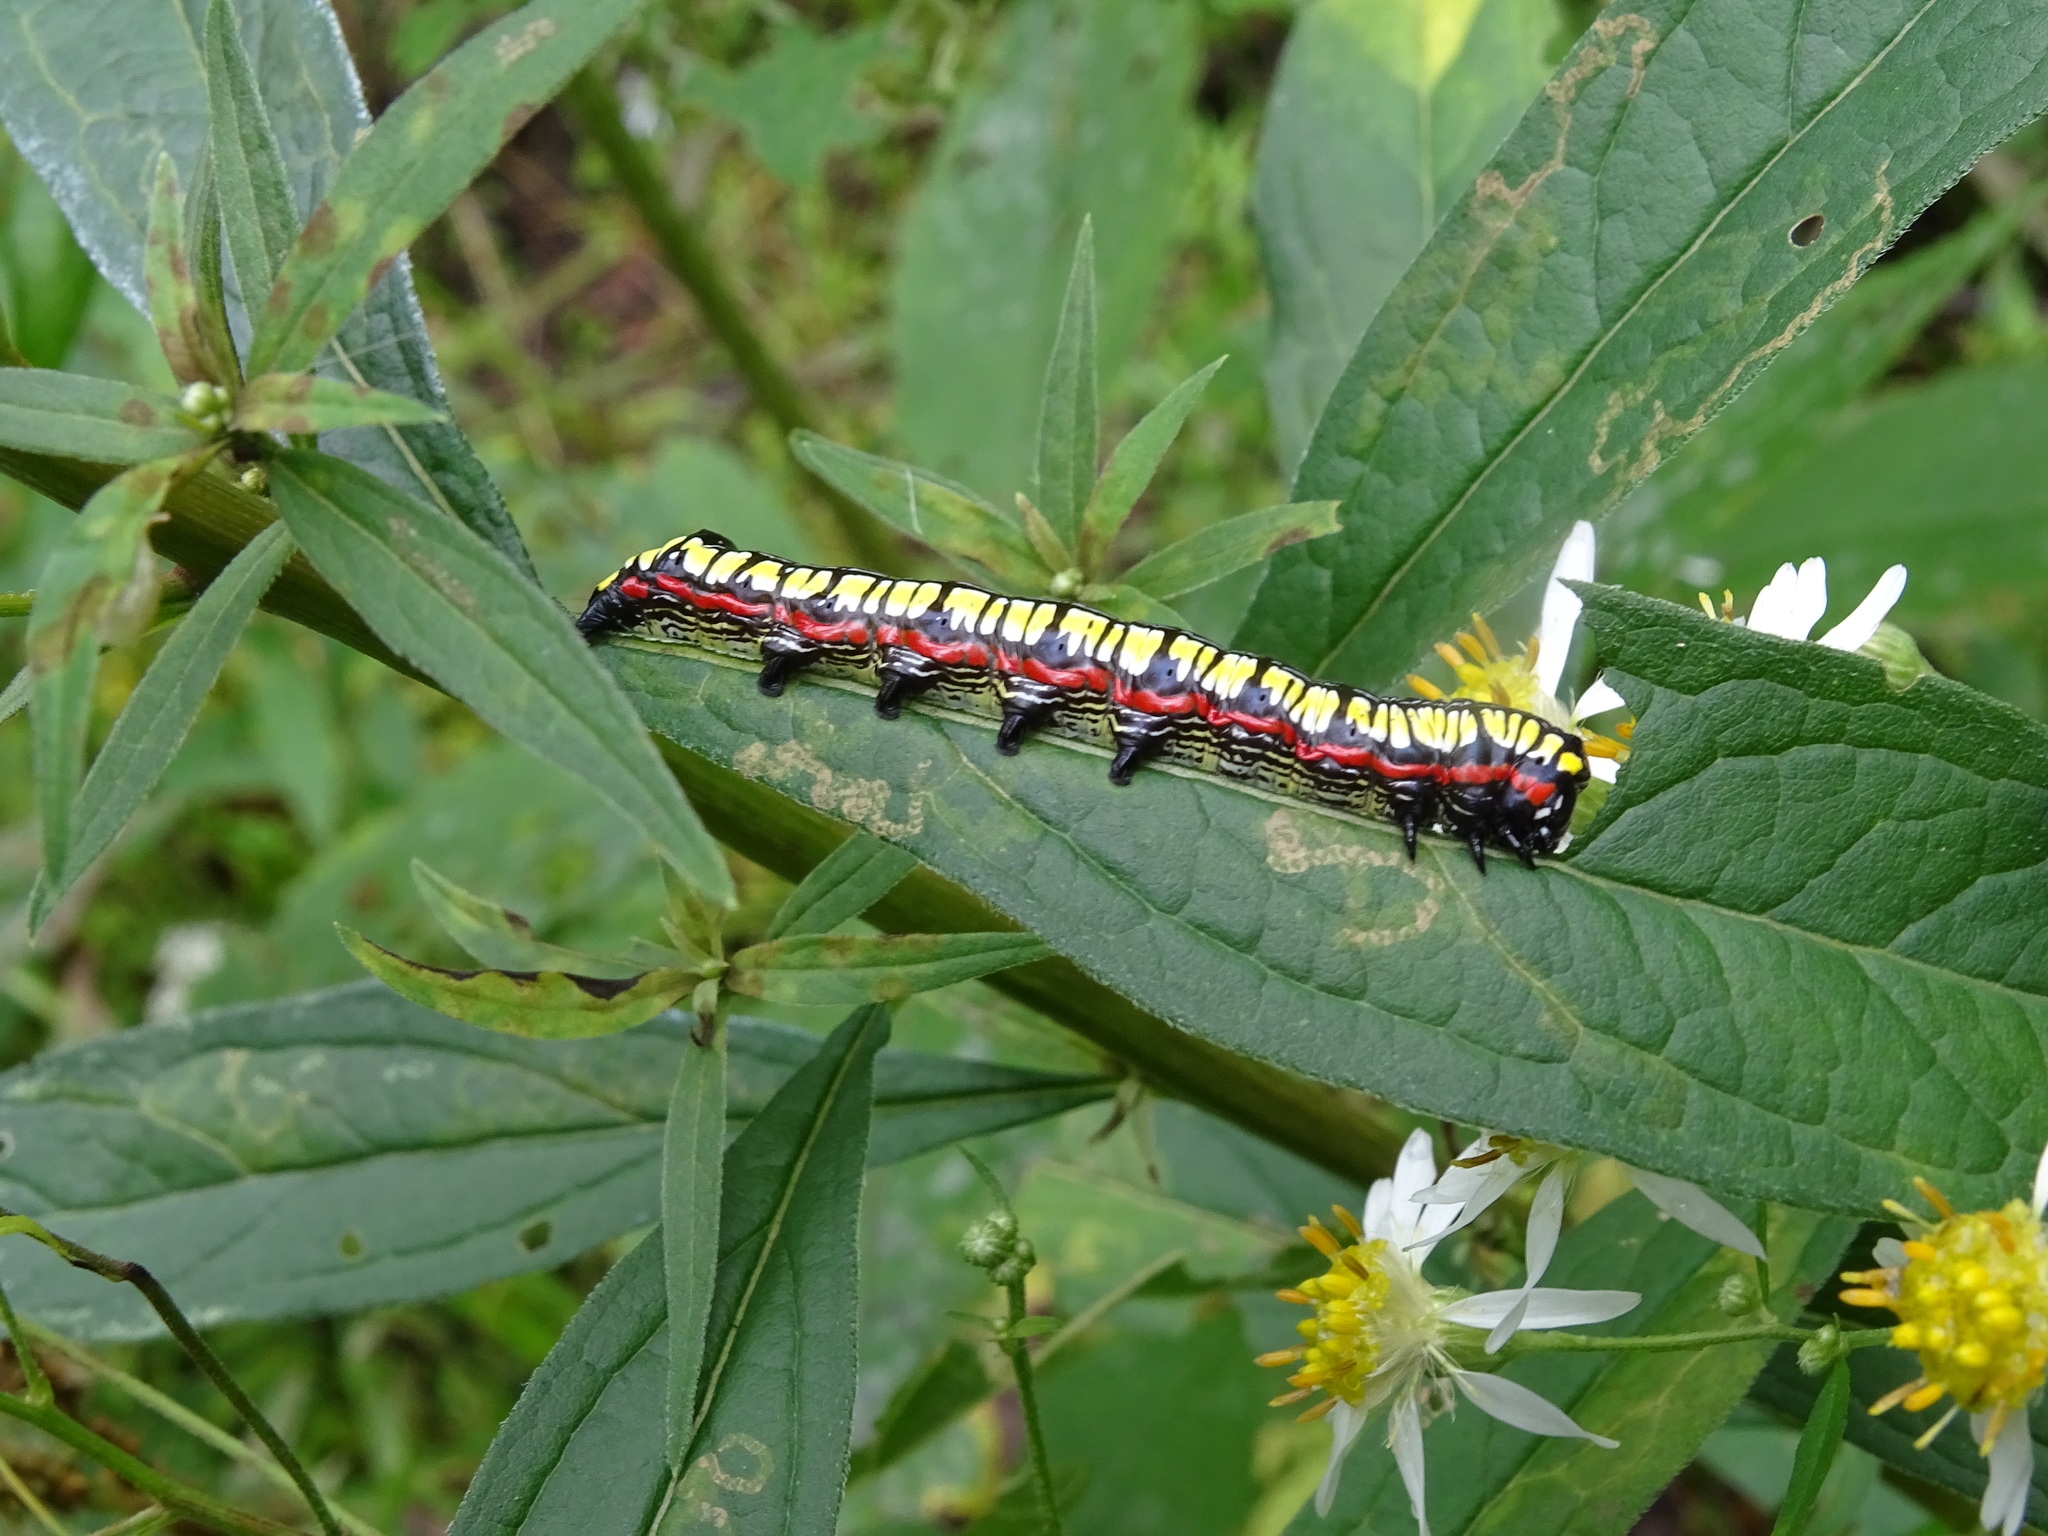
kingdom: Animalia
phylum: Arthropoda
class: Insecta
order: Lepidoptera
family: Noctuidae
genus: Cucullia
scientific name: Cucullia convexipennis
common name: Brown-hooded owlet
